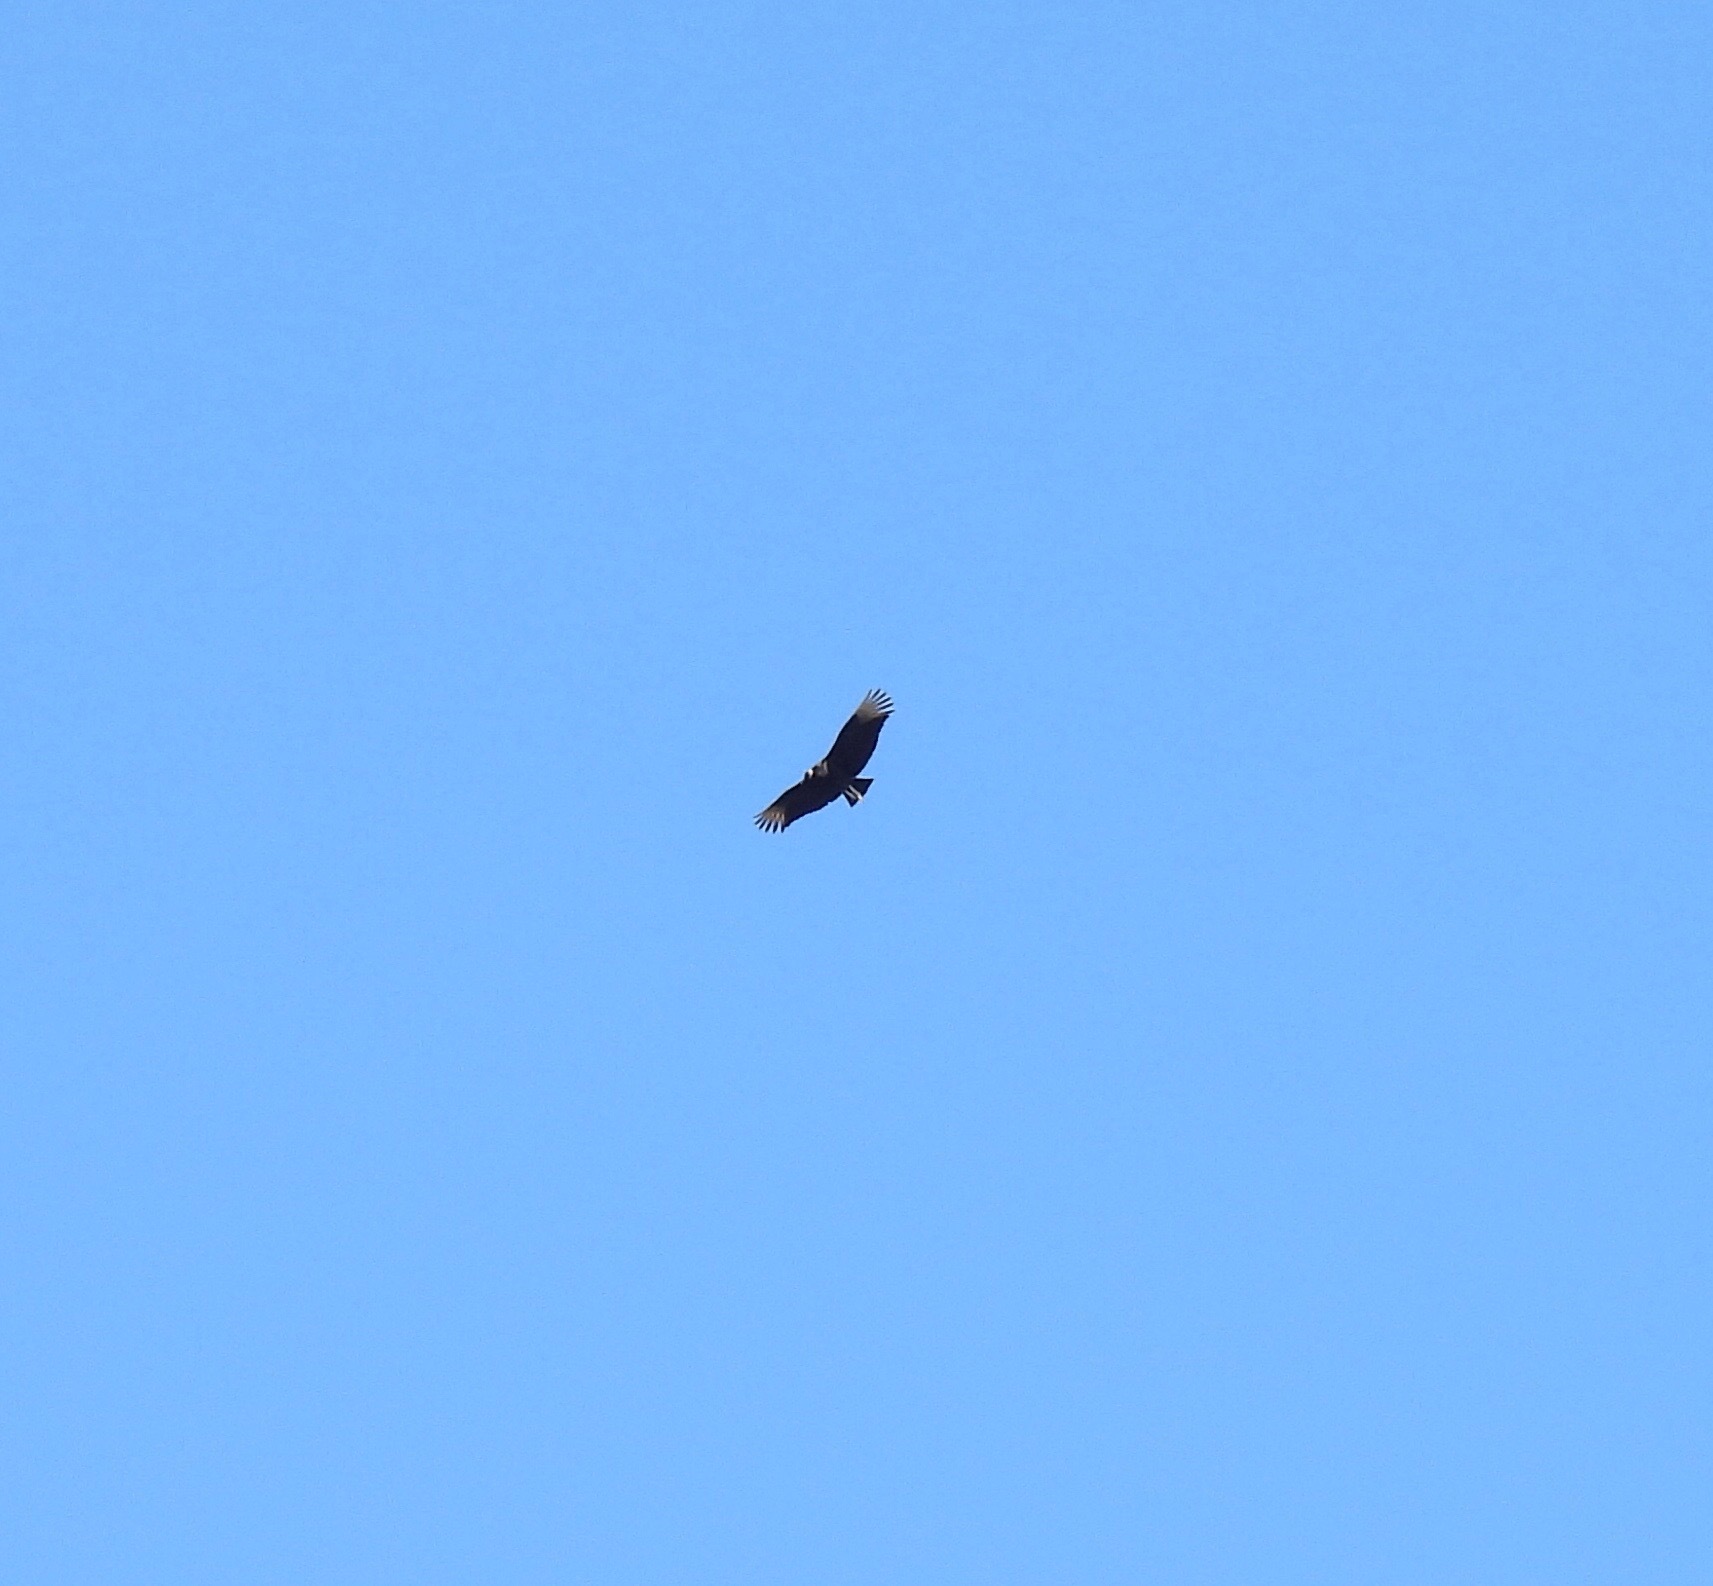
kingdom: Animalia
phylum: Chordata
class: Aves
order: Accipitriformes
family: Cathartidae
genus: Coragyps
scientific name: Coragyps atratus
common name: Black vulture
